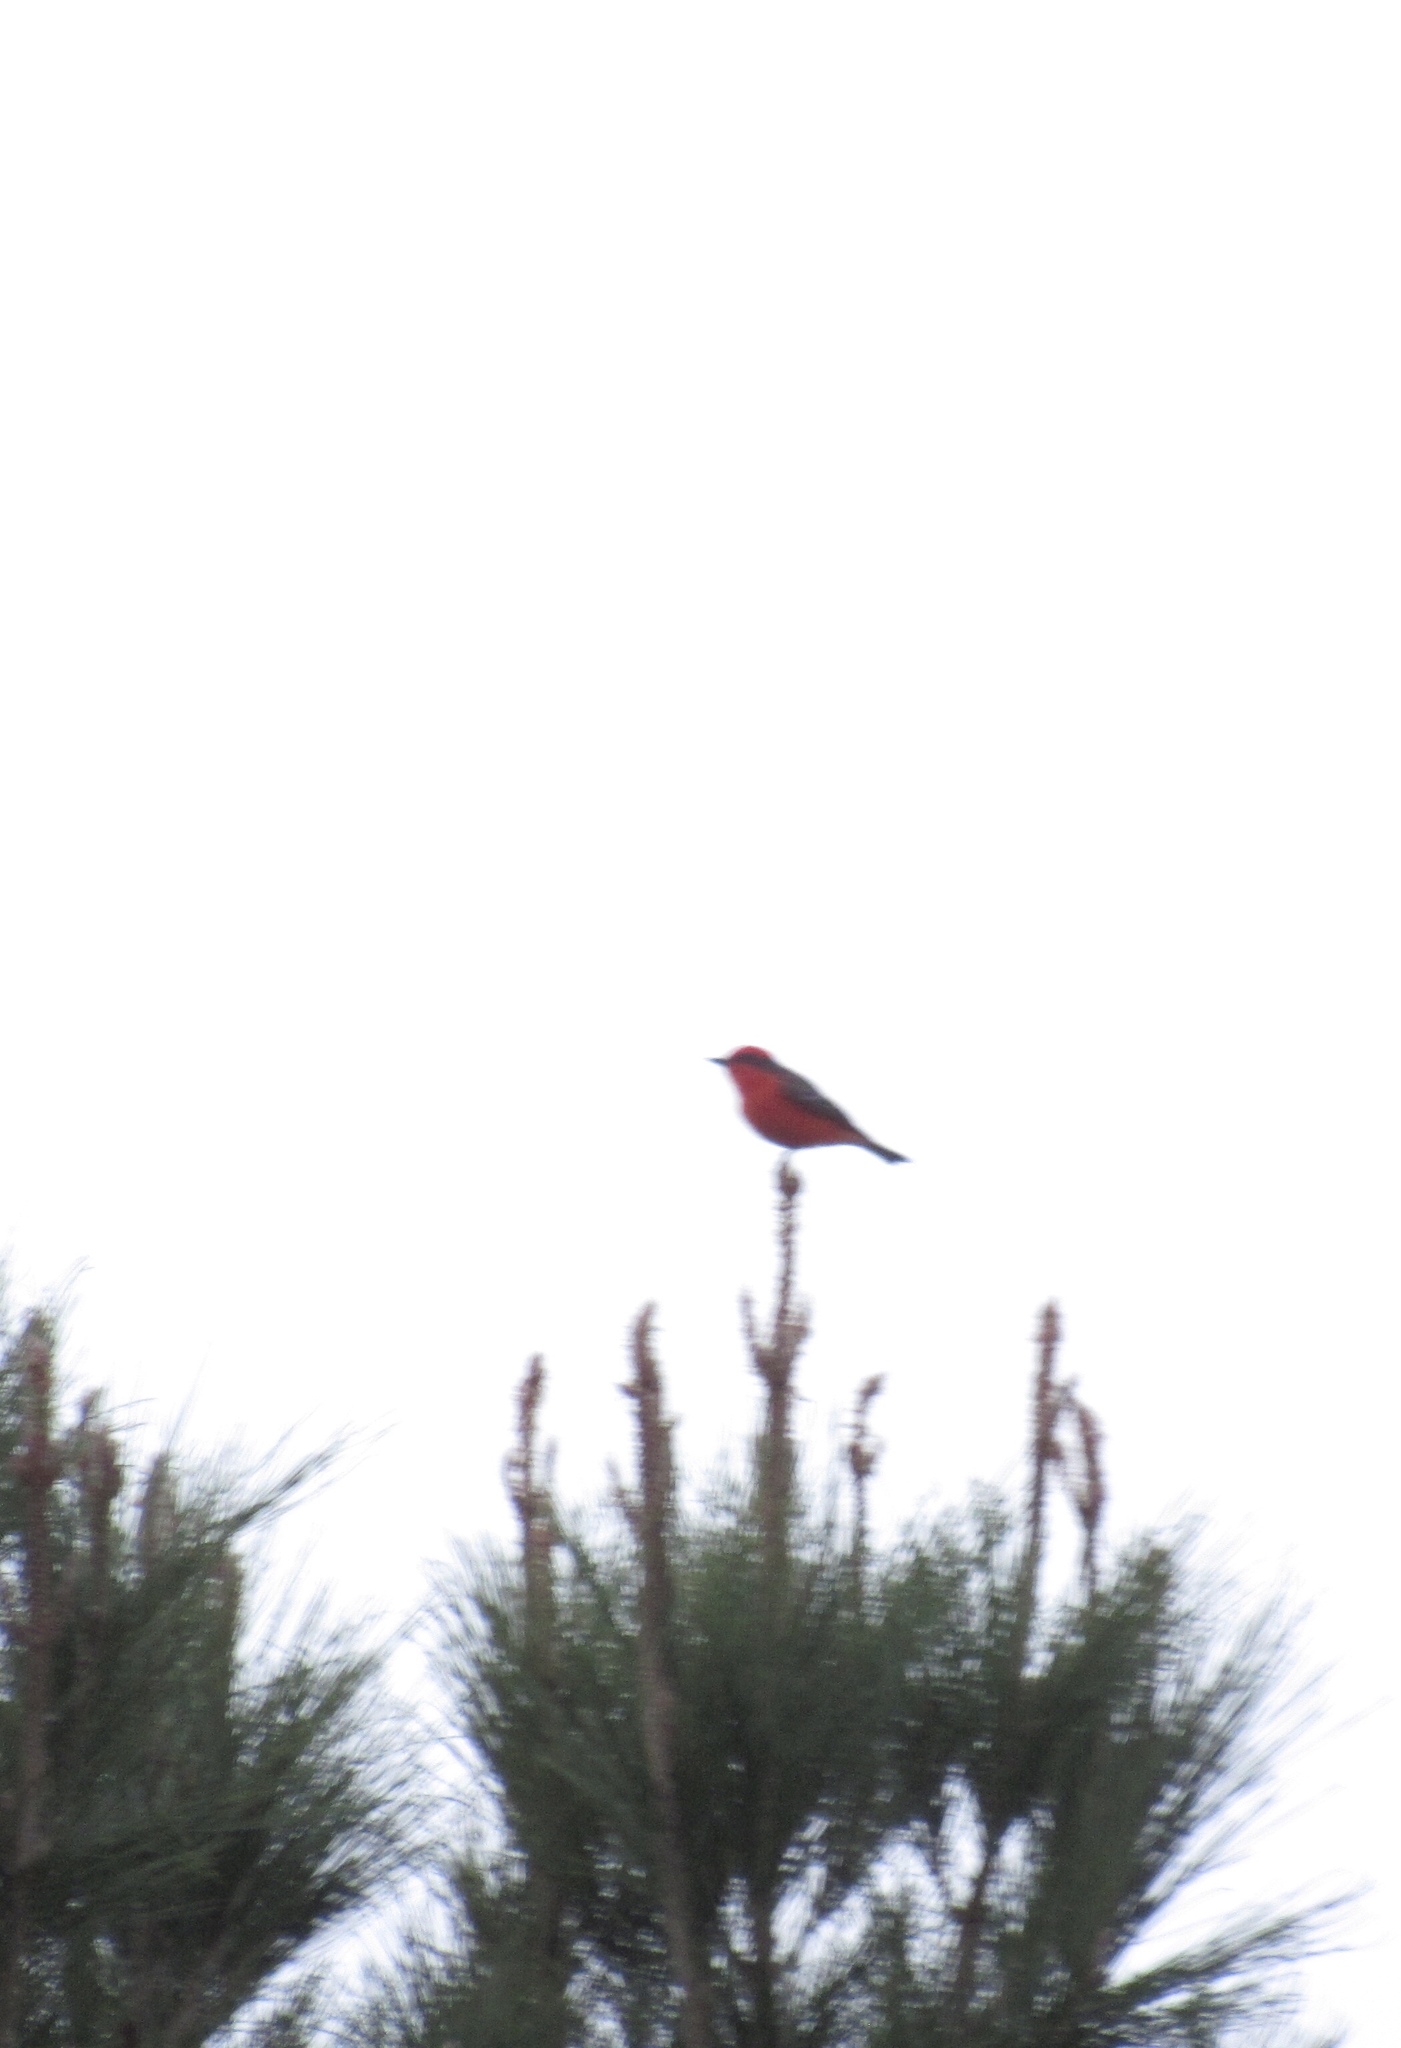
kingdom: Animalia
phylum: Chordata
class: Aves
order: Passeriformes
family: Tyrannidae
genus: Pyrocephalus
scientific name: Pyrocephalus rubinus
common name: Vermilion flycatcher
